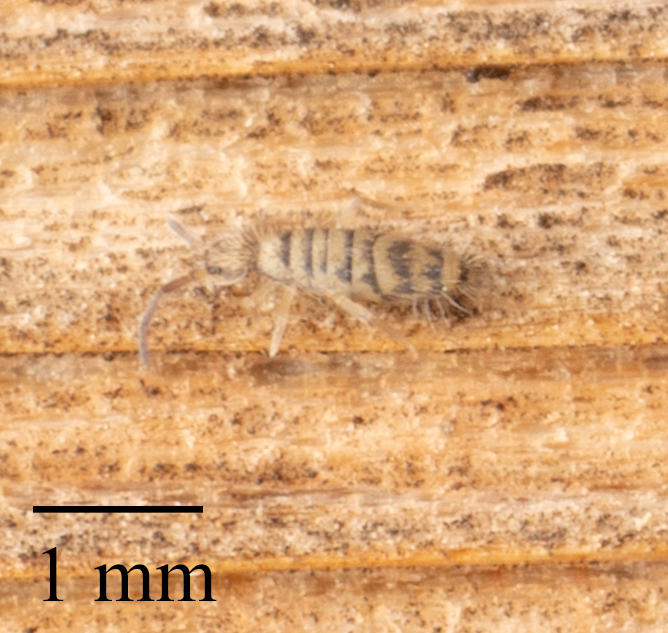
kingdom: Animalia
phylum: Arthropoda
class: Collembola
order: Entomobryomorpha
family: Entomobryidae
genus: Entomobrya
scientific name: Entomobrya multifasciata
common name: Springtail
